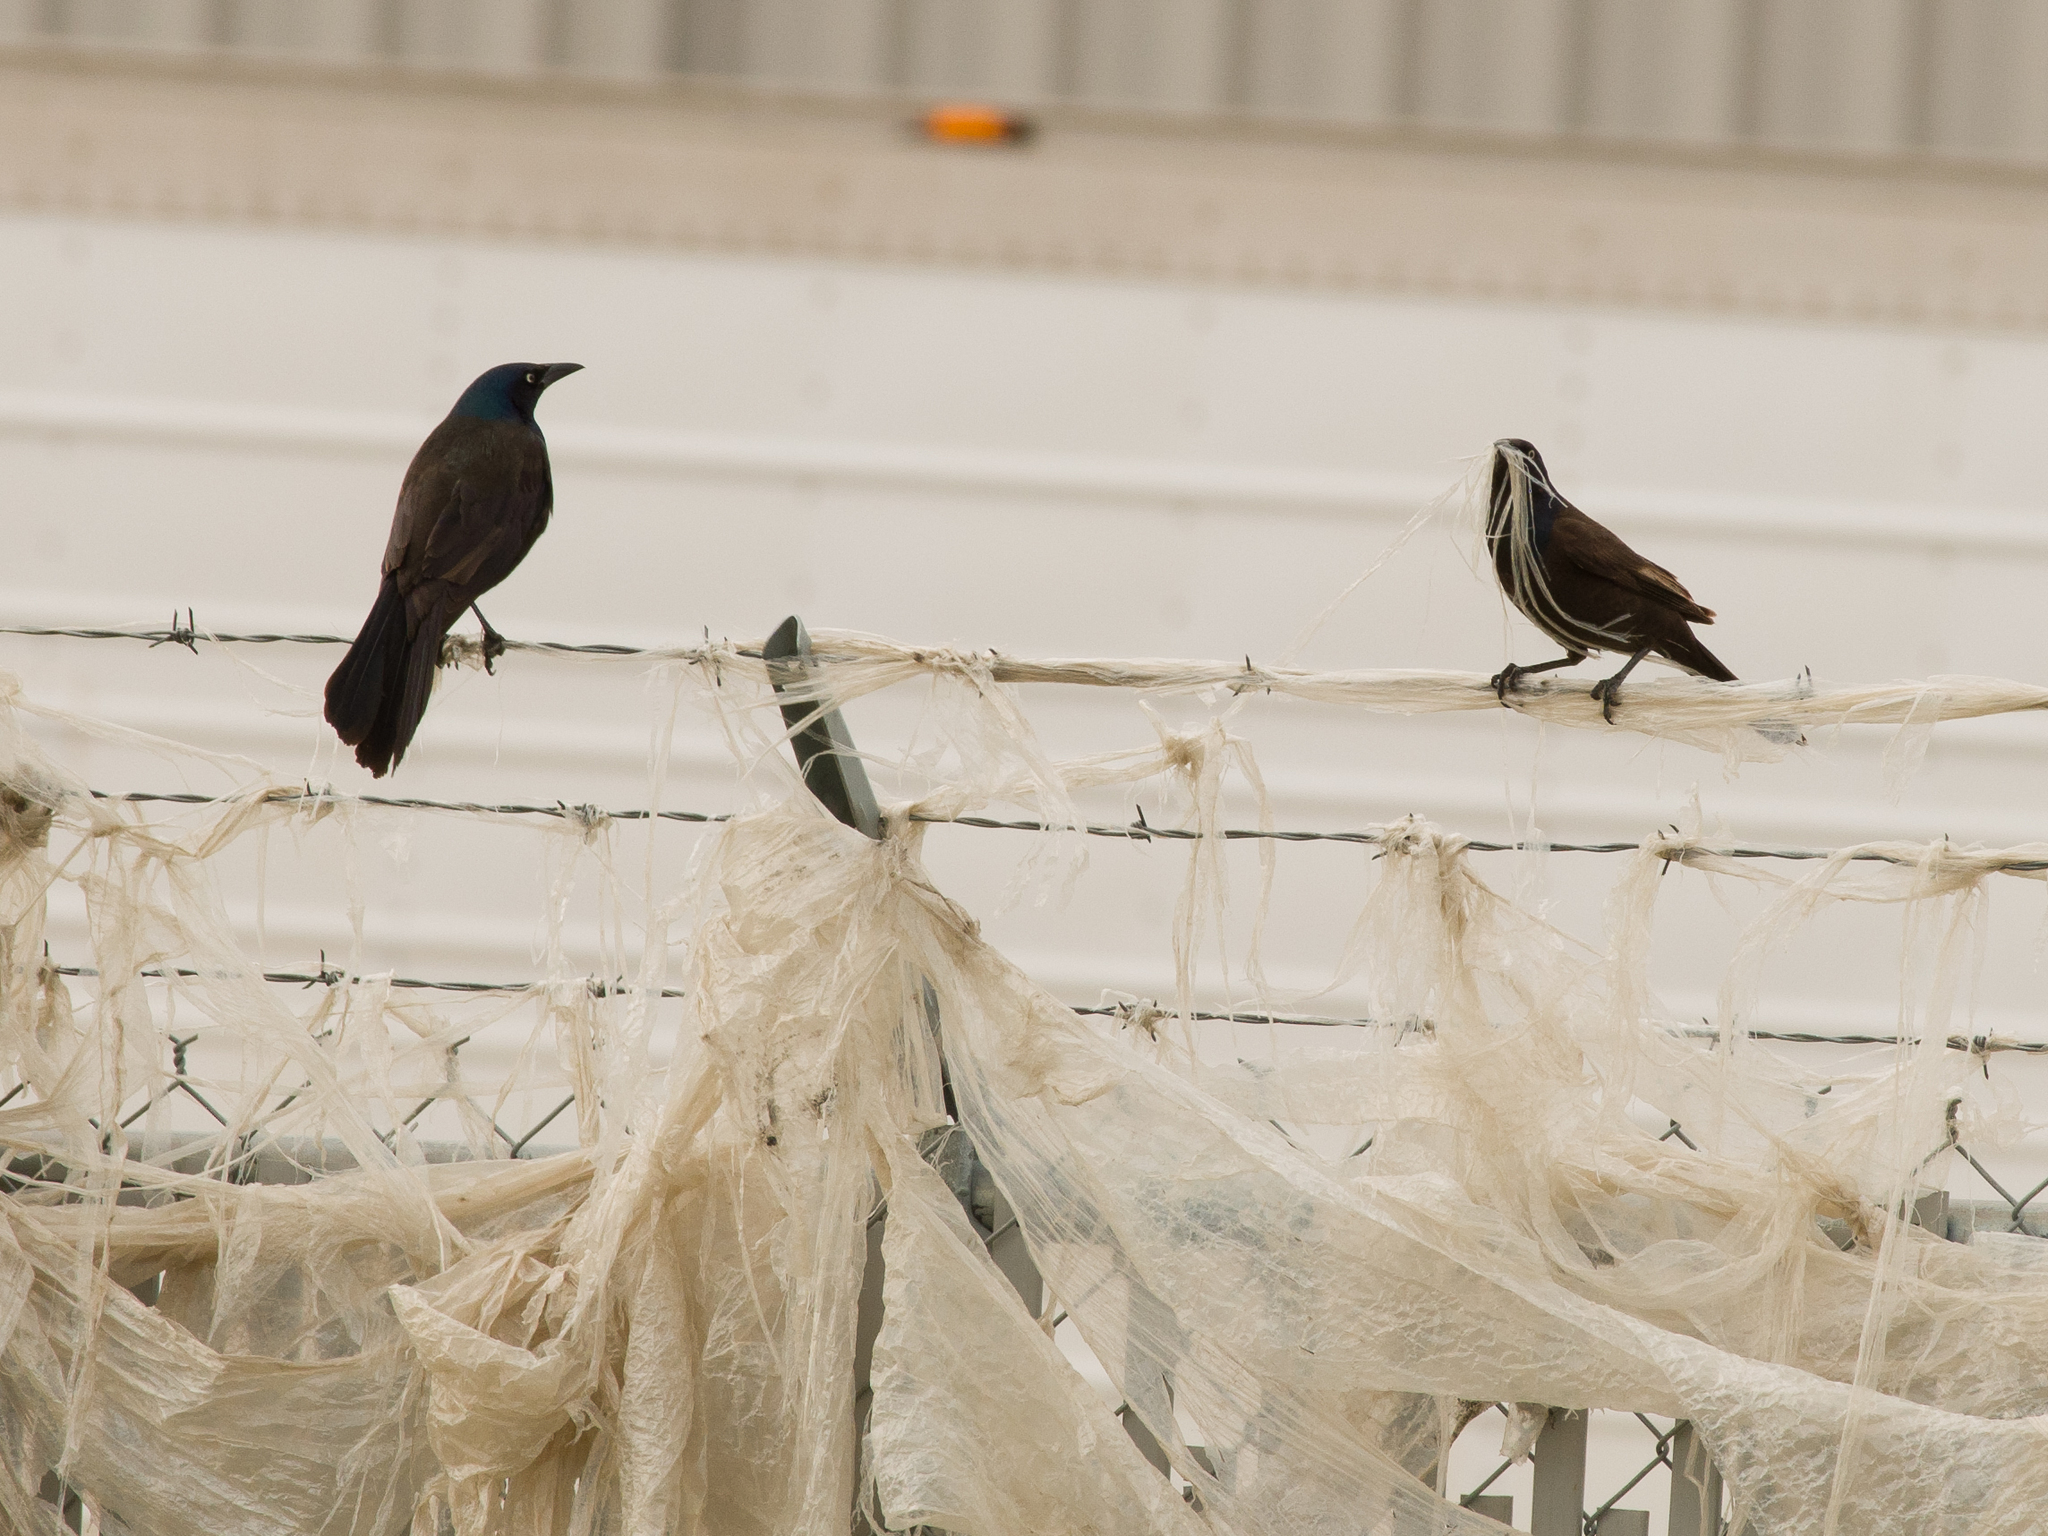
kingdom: Animalia
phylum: Chordata
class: Aves
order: Passeriformes
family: Icteridae
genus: Quiscalus
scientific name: Quiscalus quiscula
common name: Common grackle
